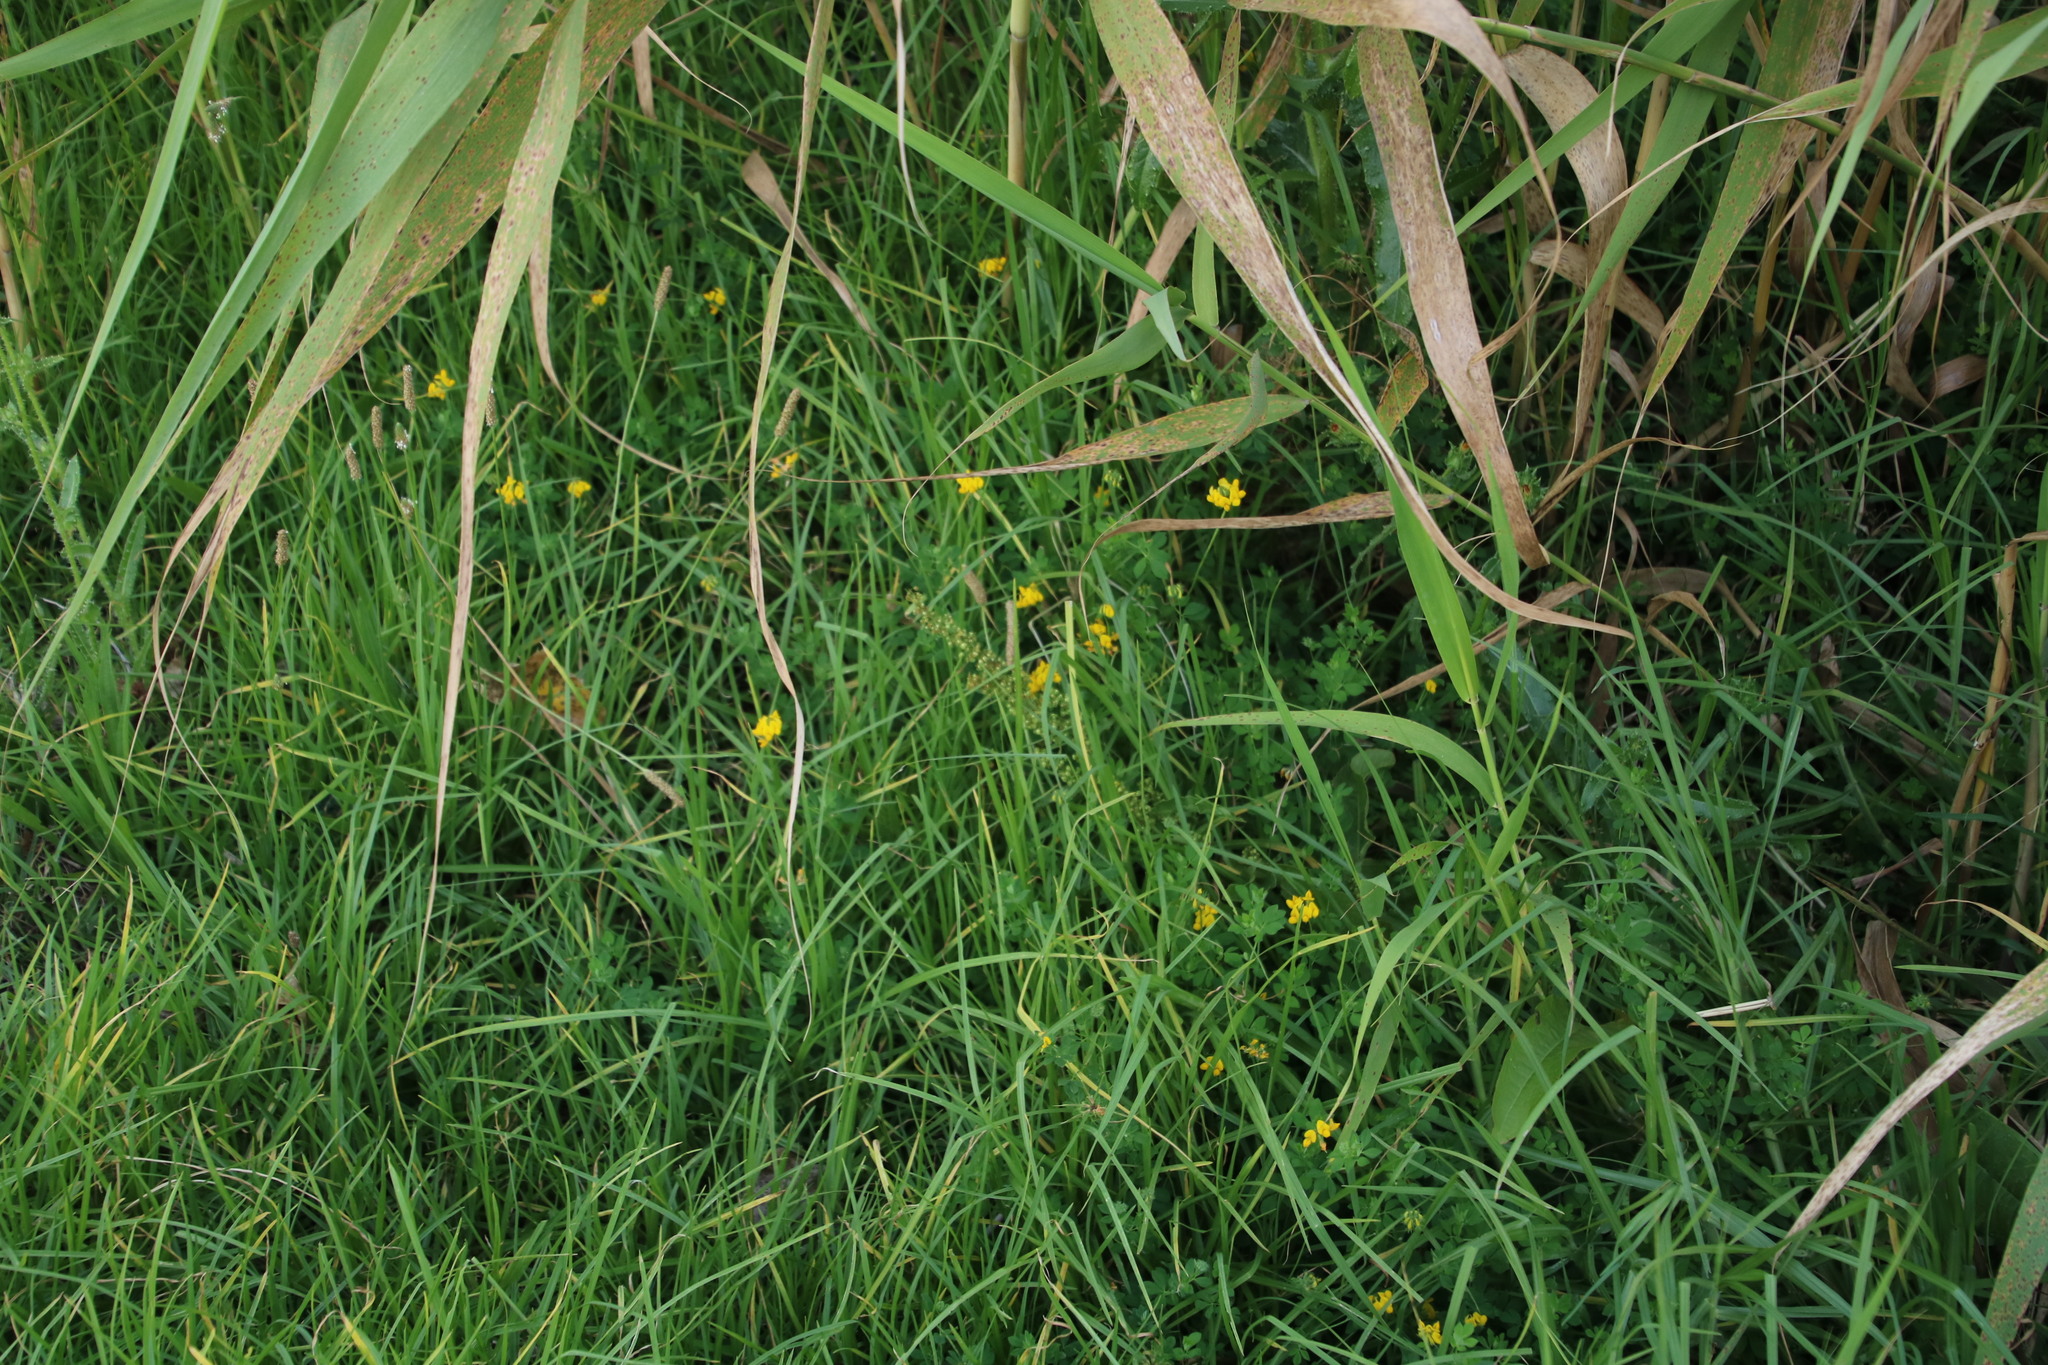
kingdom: Plantae
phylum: Tracheophyta
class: Magnoliopsida
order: Fabales
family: Fabaceae
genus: Lotus
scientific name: Lotus corniculatus
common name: Common bird's-foot-trefoil
